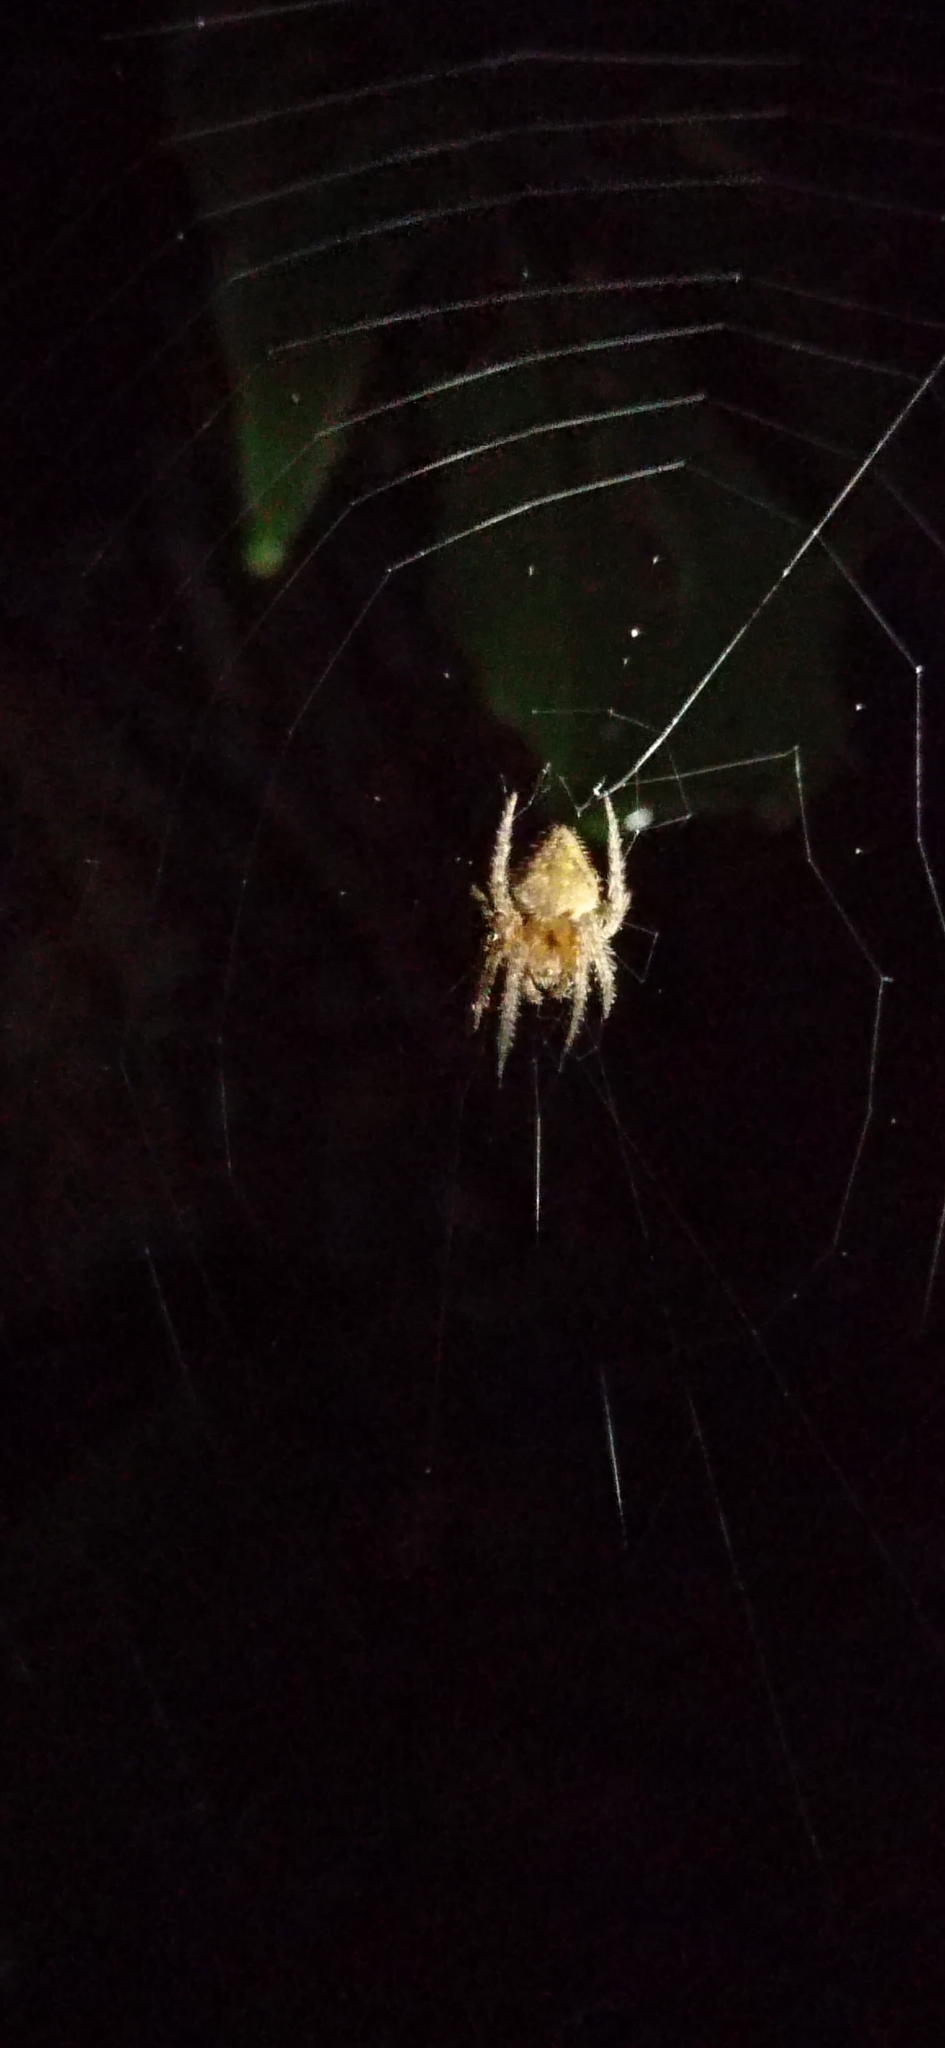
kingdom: Animalia
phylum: Arthropoda
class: Arachnida
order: Araneae
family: Araneidae
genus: Eriophora
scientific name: Eriophora edax
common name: Orb weavers
